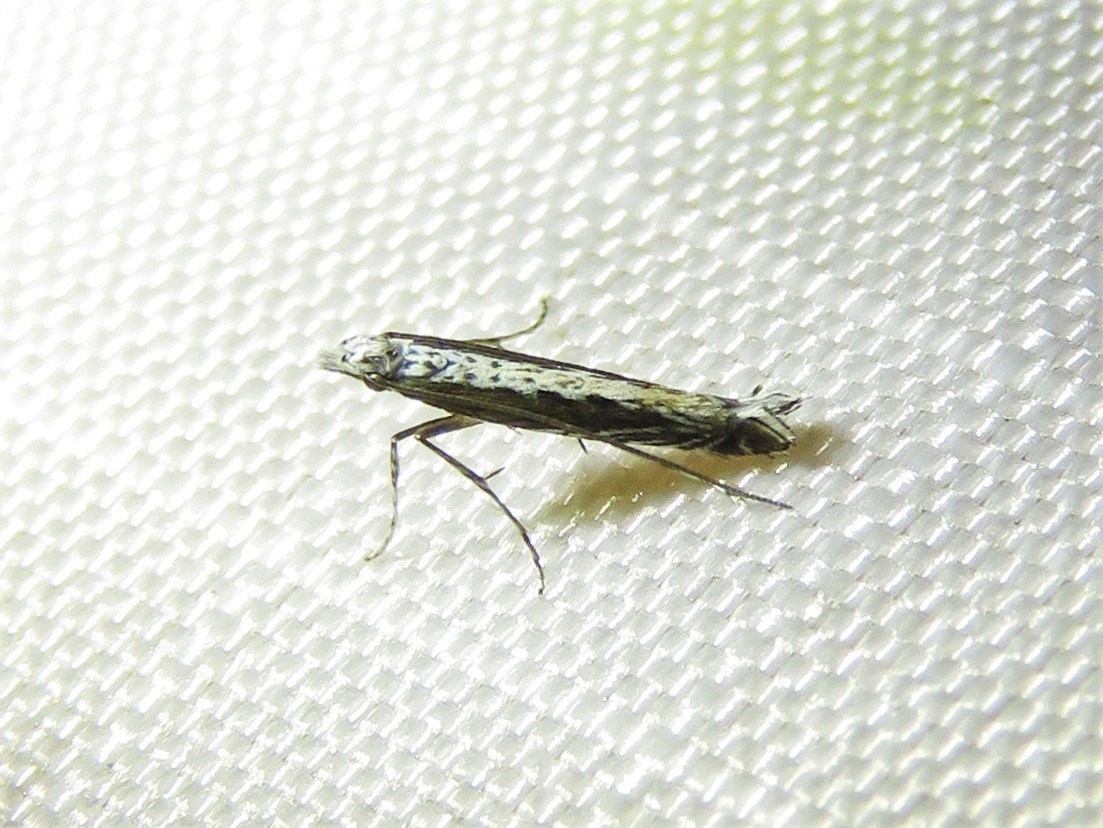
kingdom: Plantae
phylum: Rhodophyta
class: Florideophyceae
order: Gracilariales
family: Gracilariaceae
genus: Gracilaria
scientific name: Gracilaria
